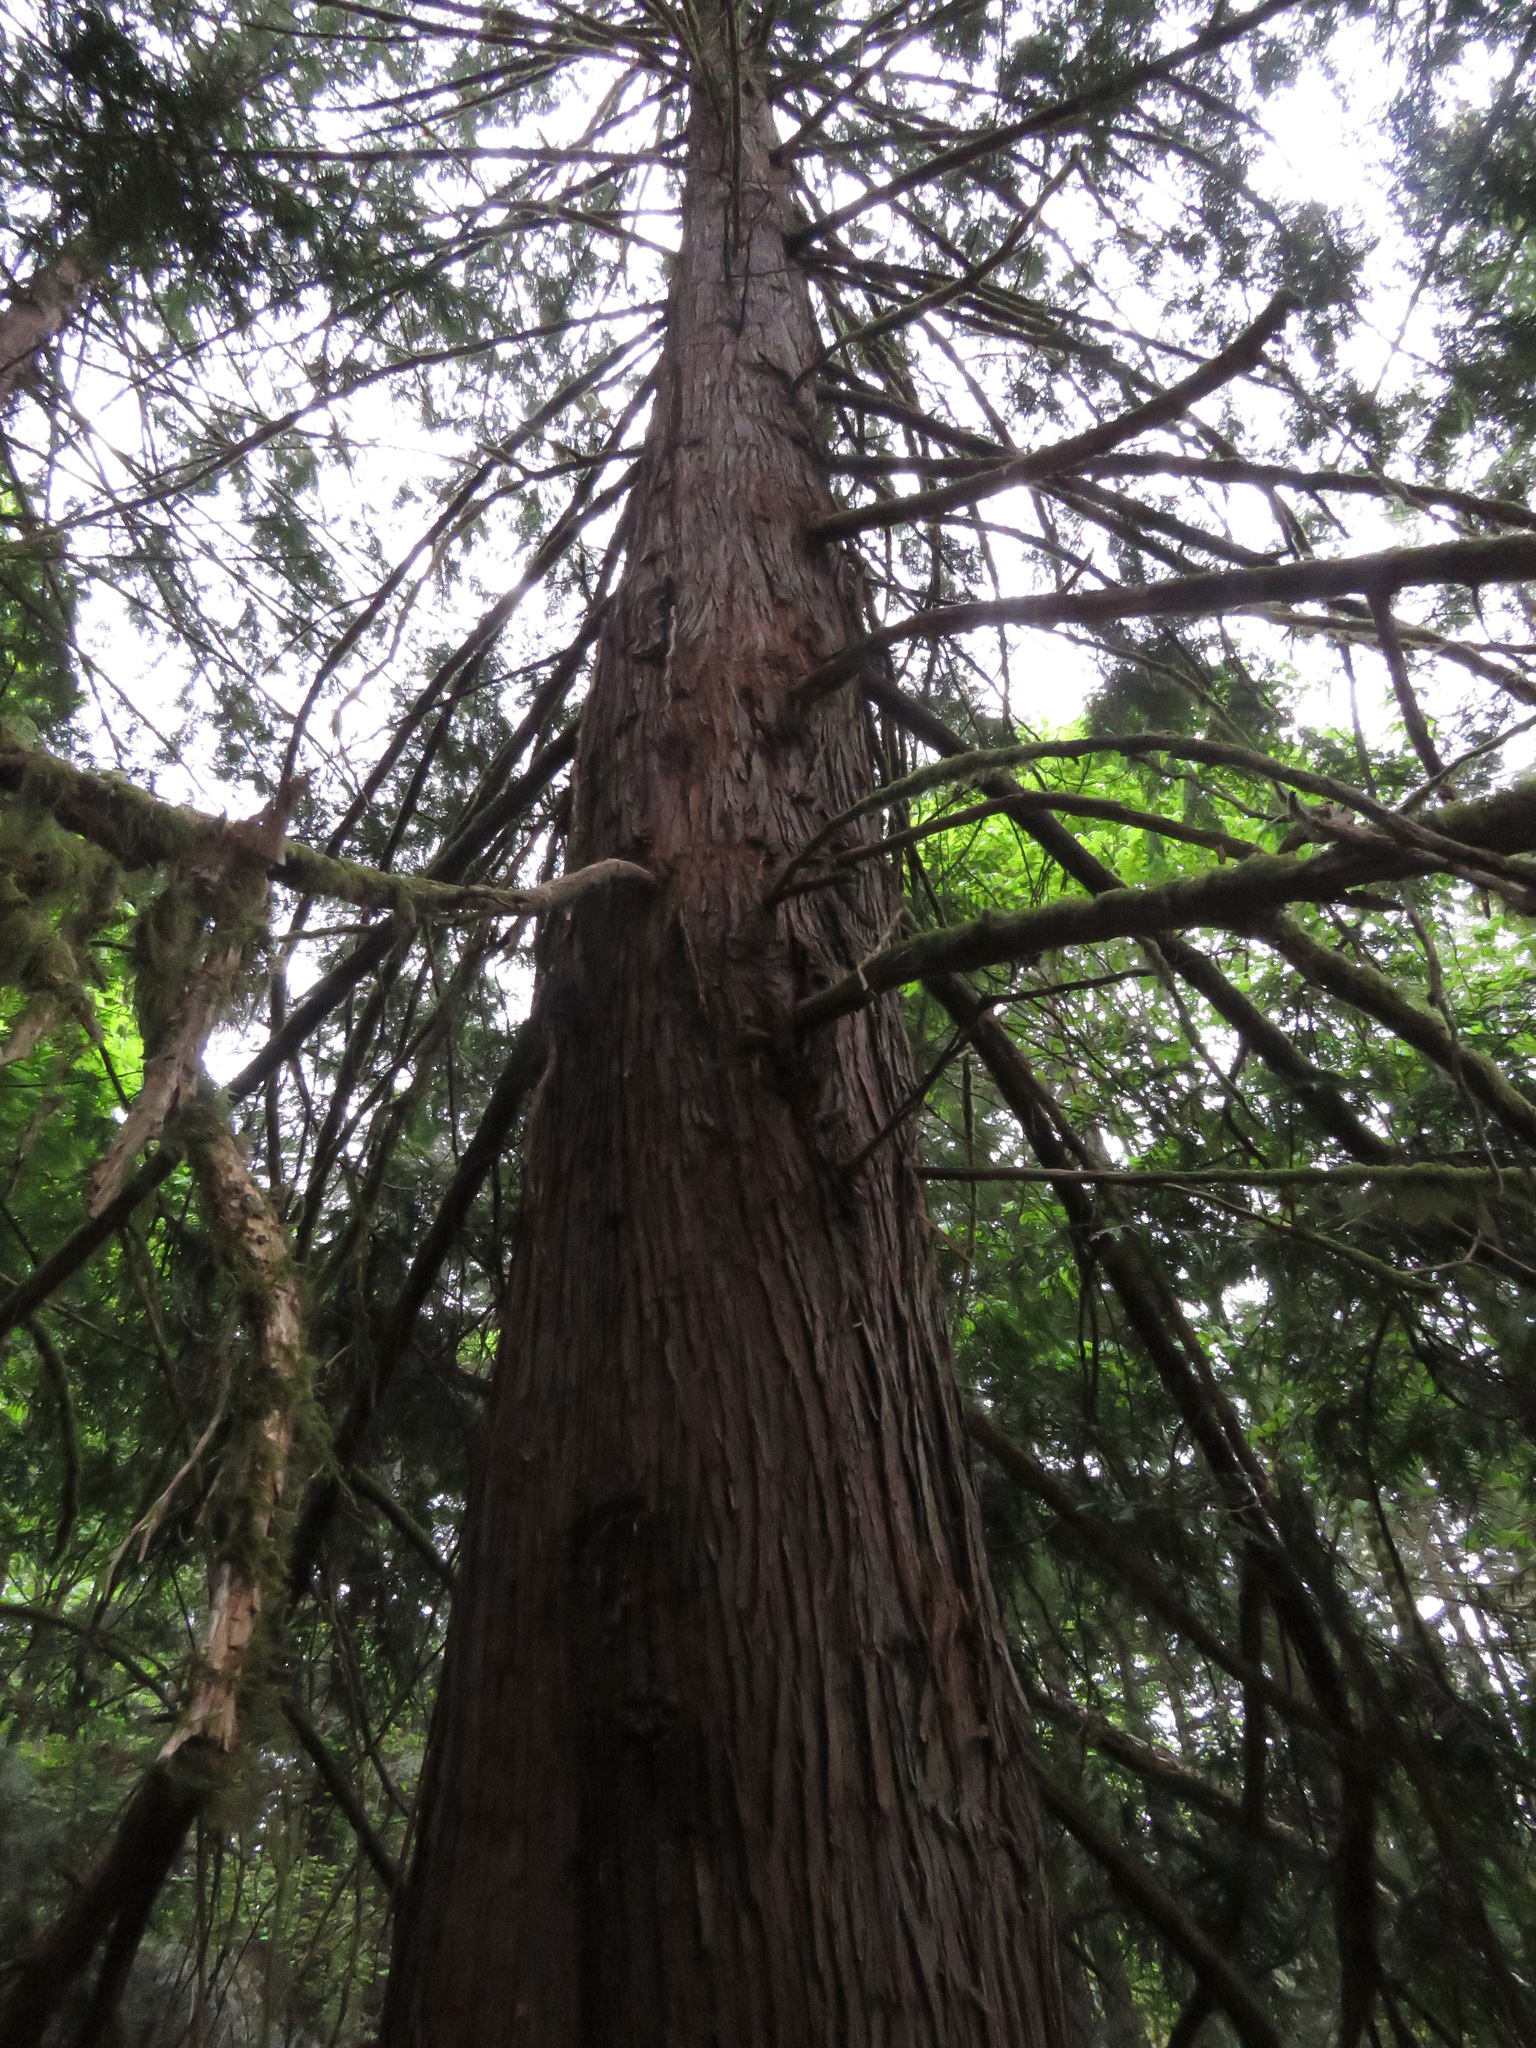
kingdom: Plantae
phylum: Tracheophyta
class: Pinopsida
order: Pinales
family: Cupressaceae
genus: Thuja
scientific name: Thuja plicata
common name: Western red-cedar
